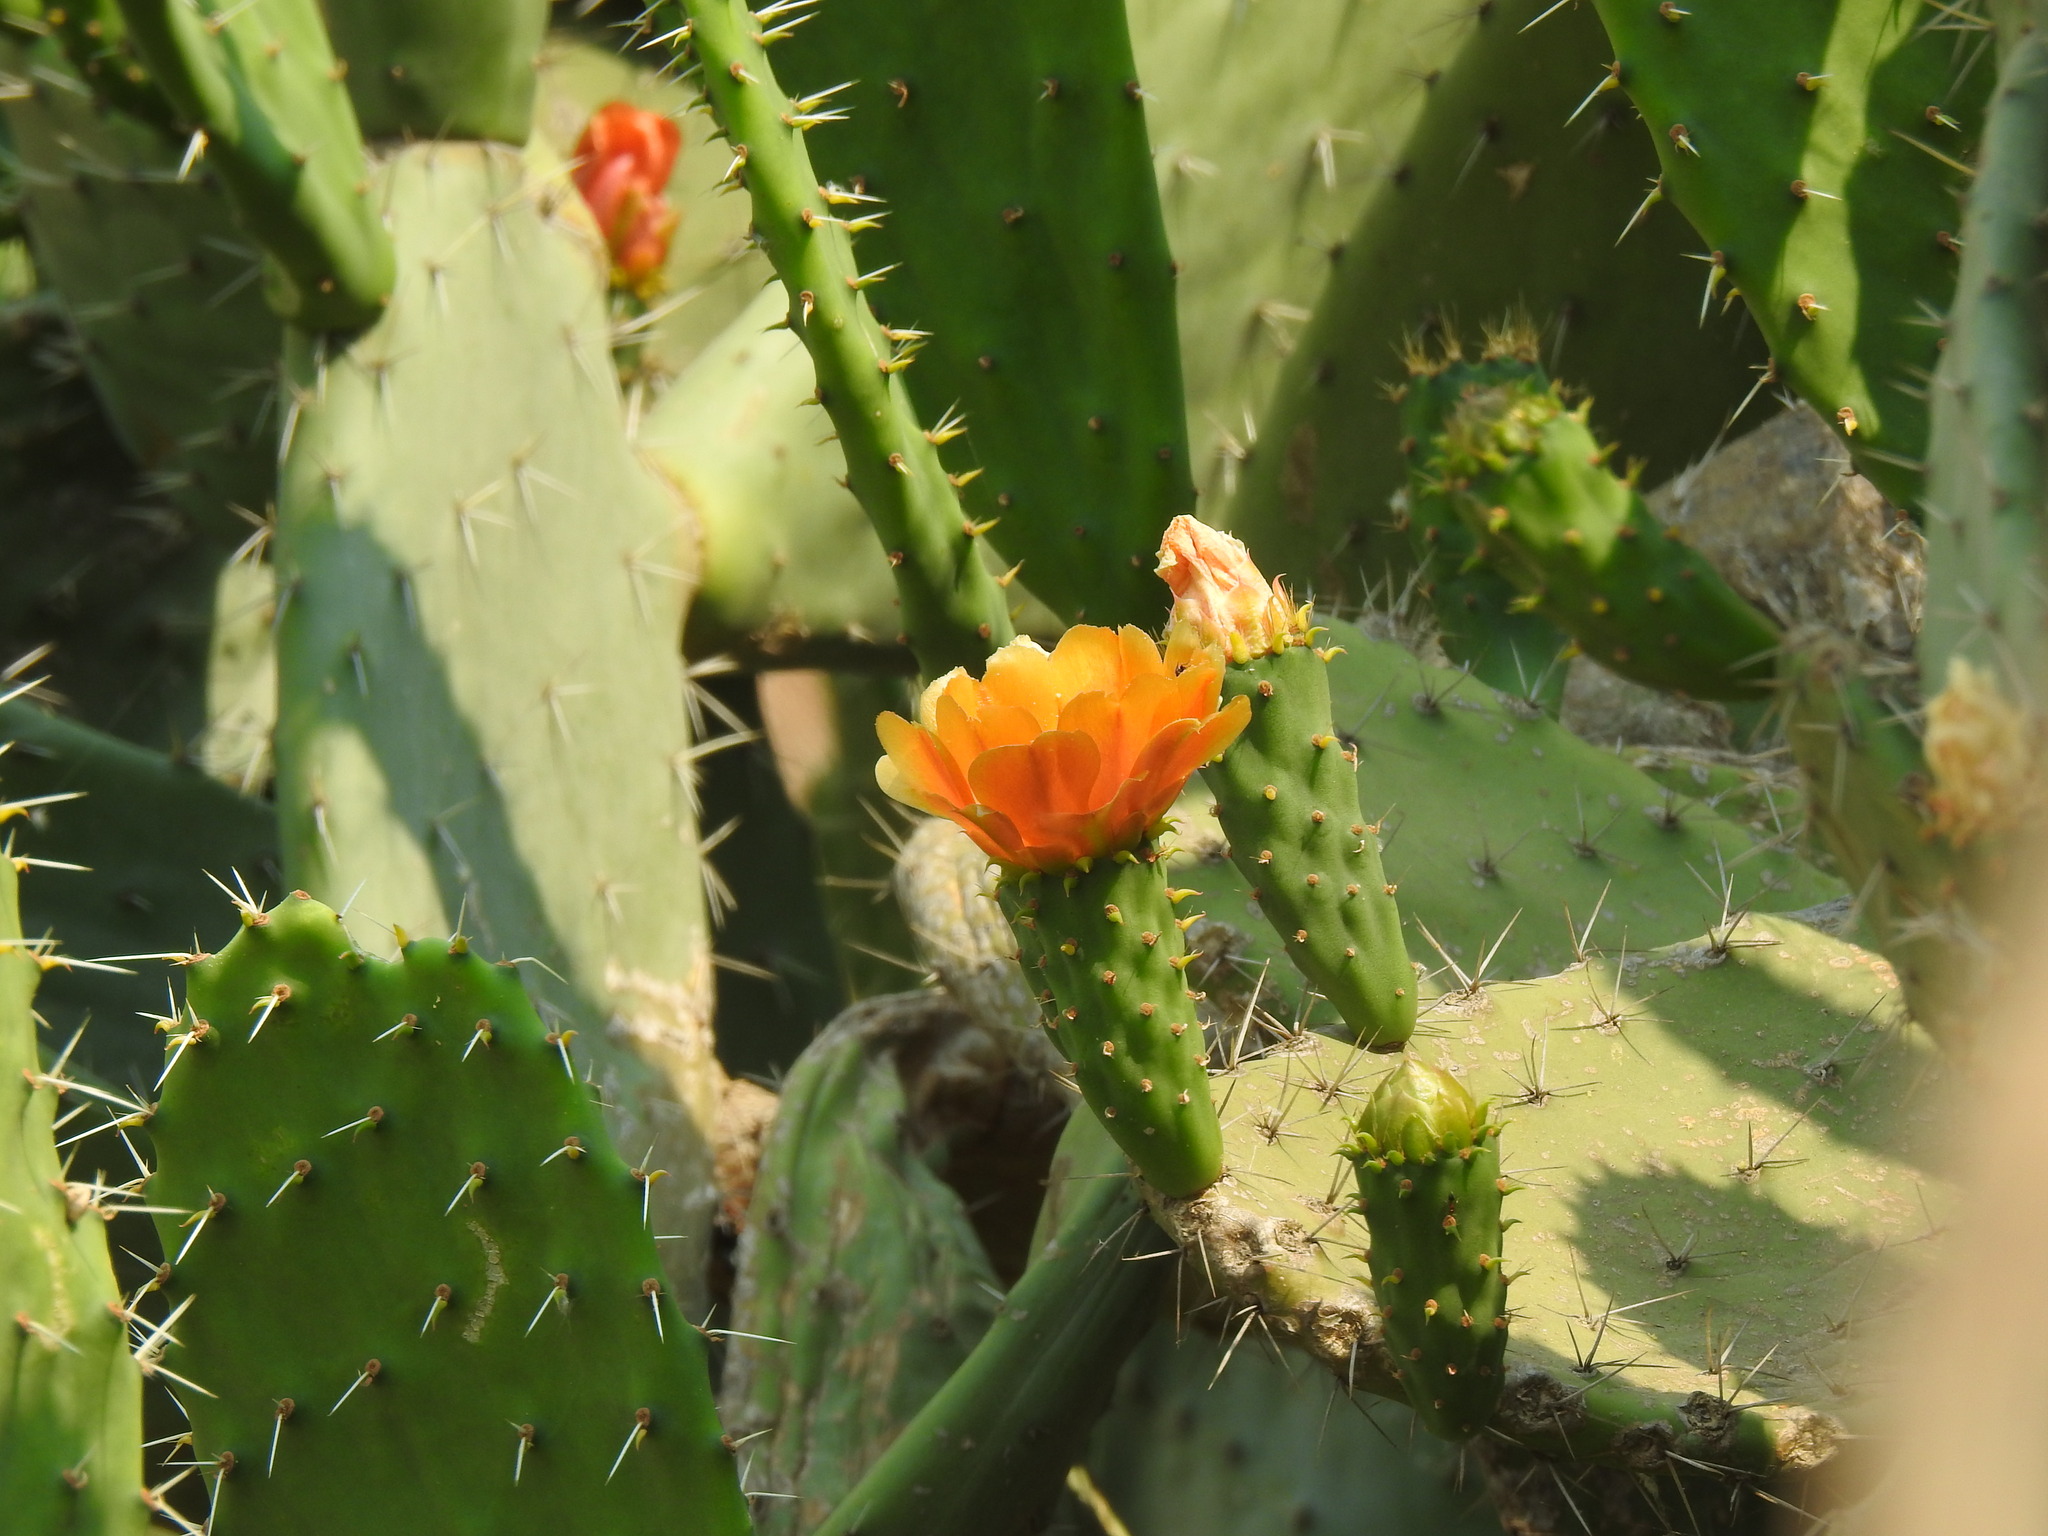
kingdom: Plantae
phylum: Tracheophyta
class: Magnoliopsida
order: Caryophyllales
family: Cactaceae
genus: Opuntia
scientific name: Opuntia ficus-indica
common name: Barbary fig
